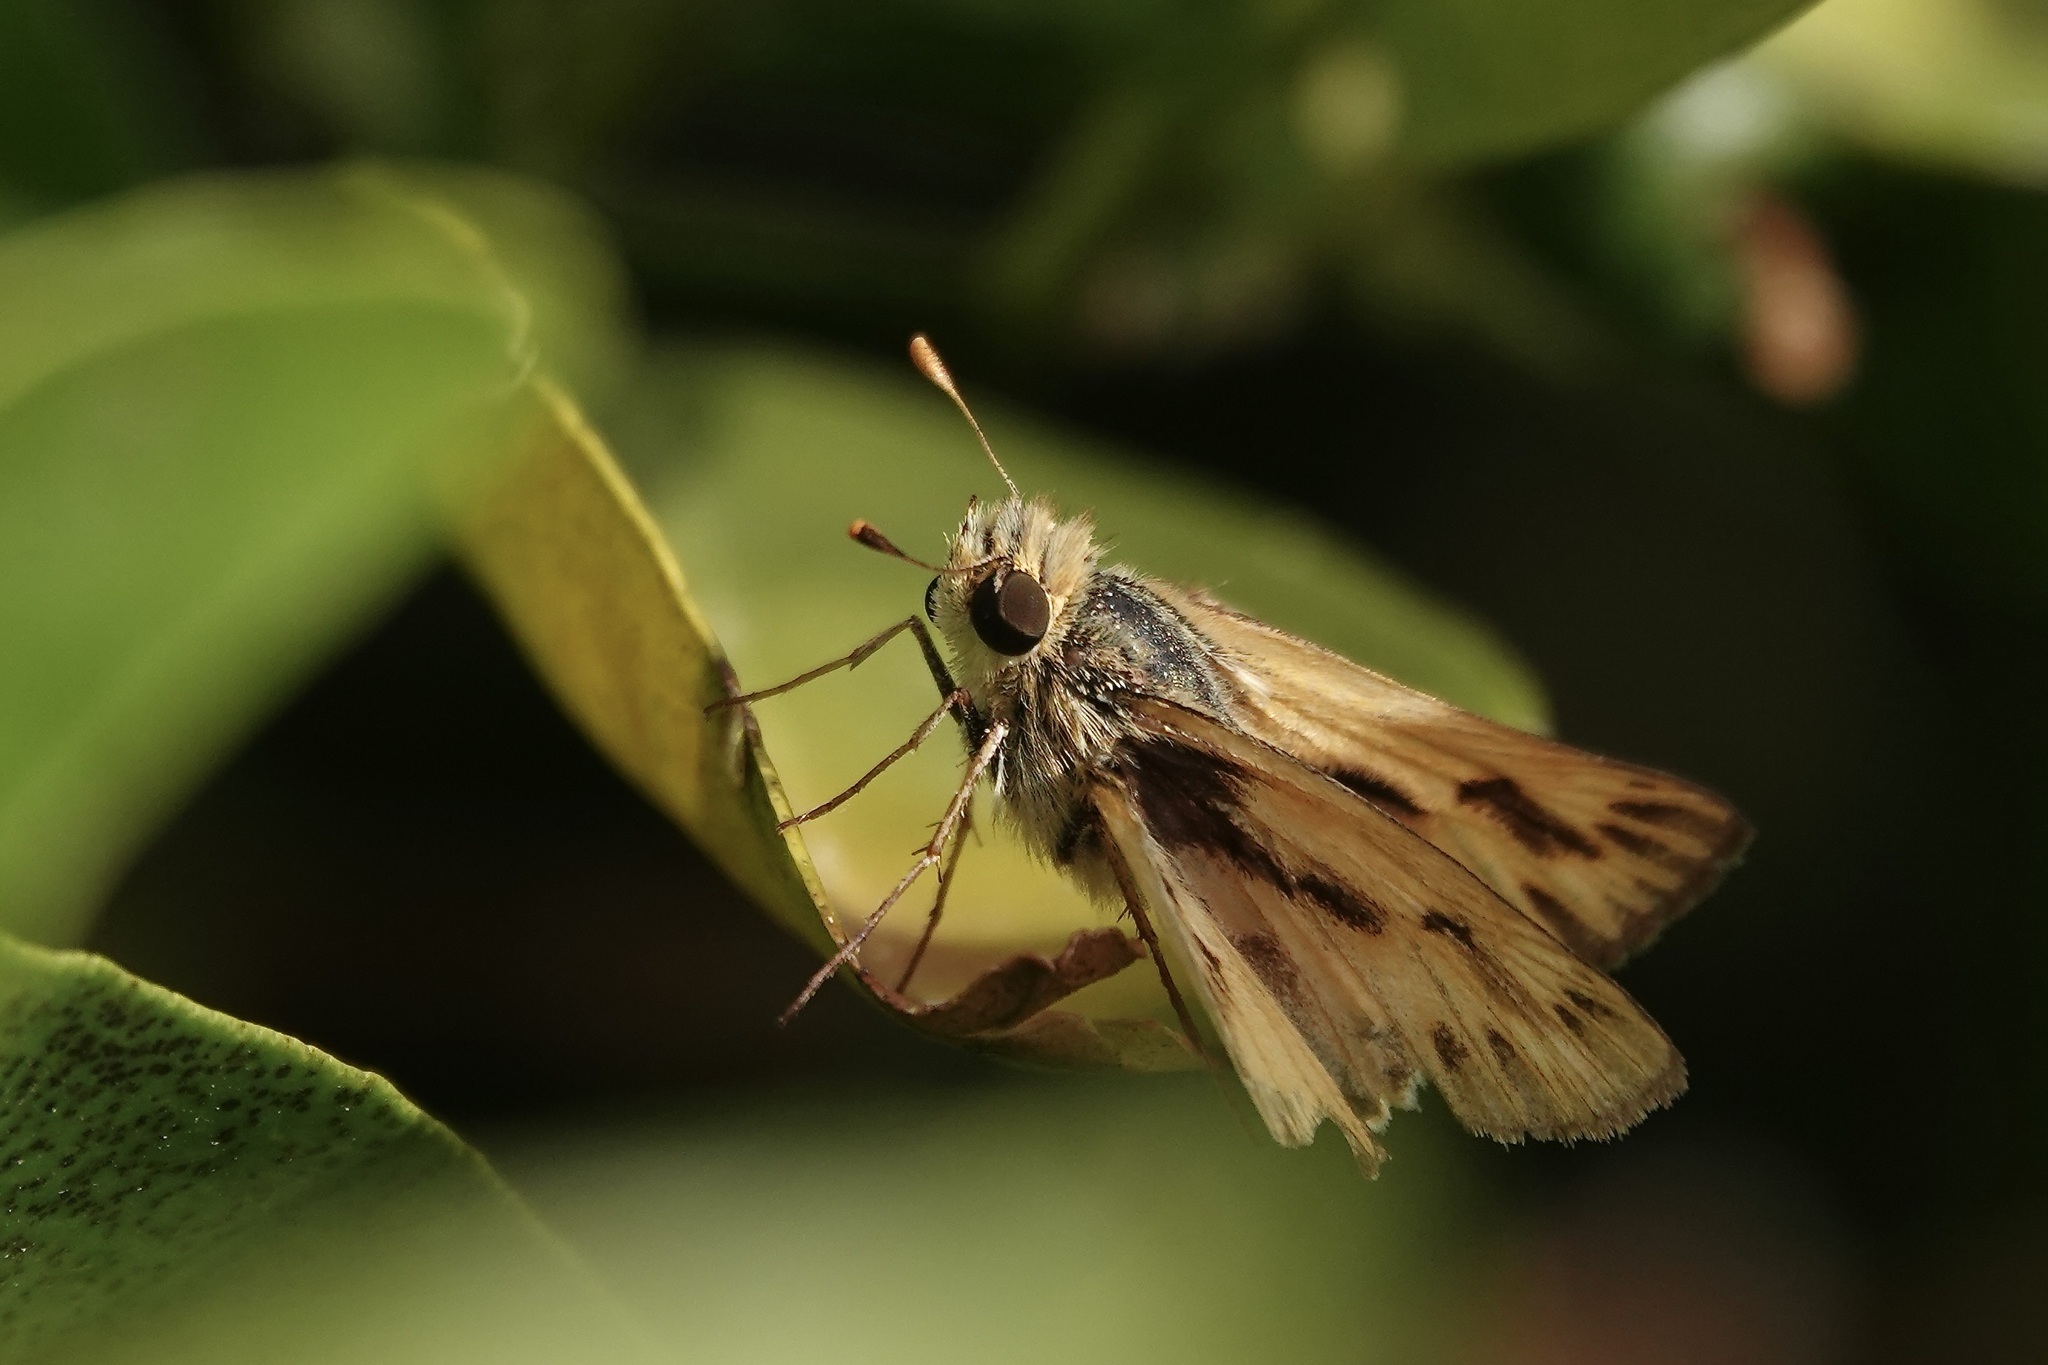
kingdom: Animalia
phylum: Arthropoda
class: Insecta
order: Lepidoptera
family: Hesperiidae
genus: Hylephila
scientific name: Hylephila phyleus
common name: Fiery skipper
